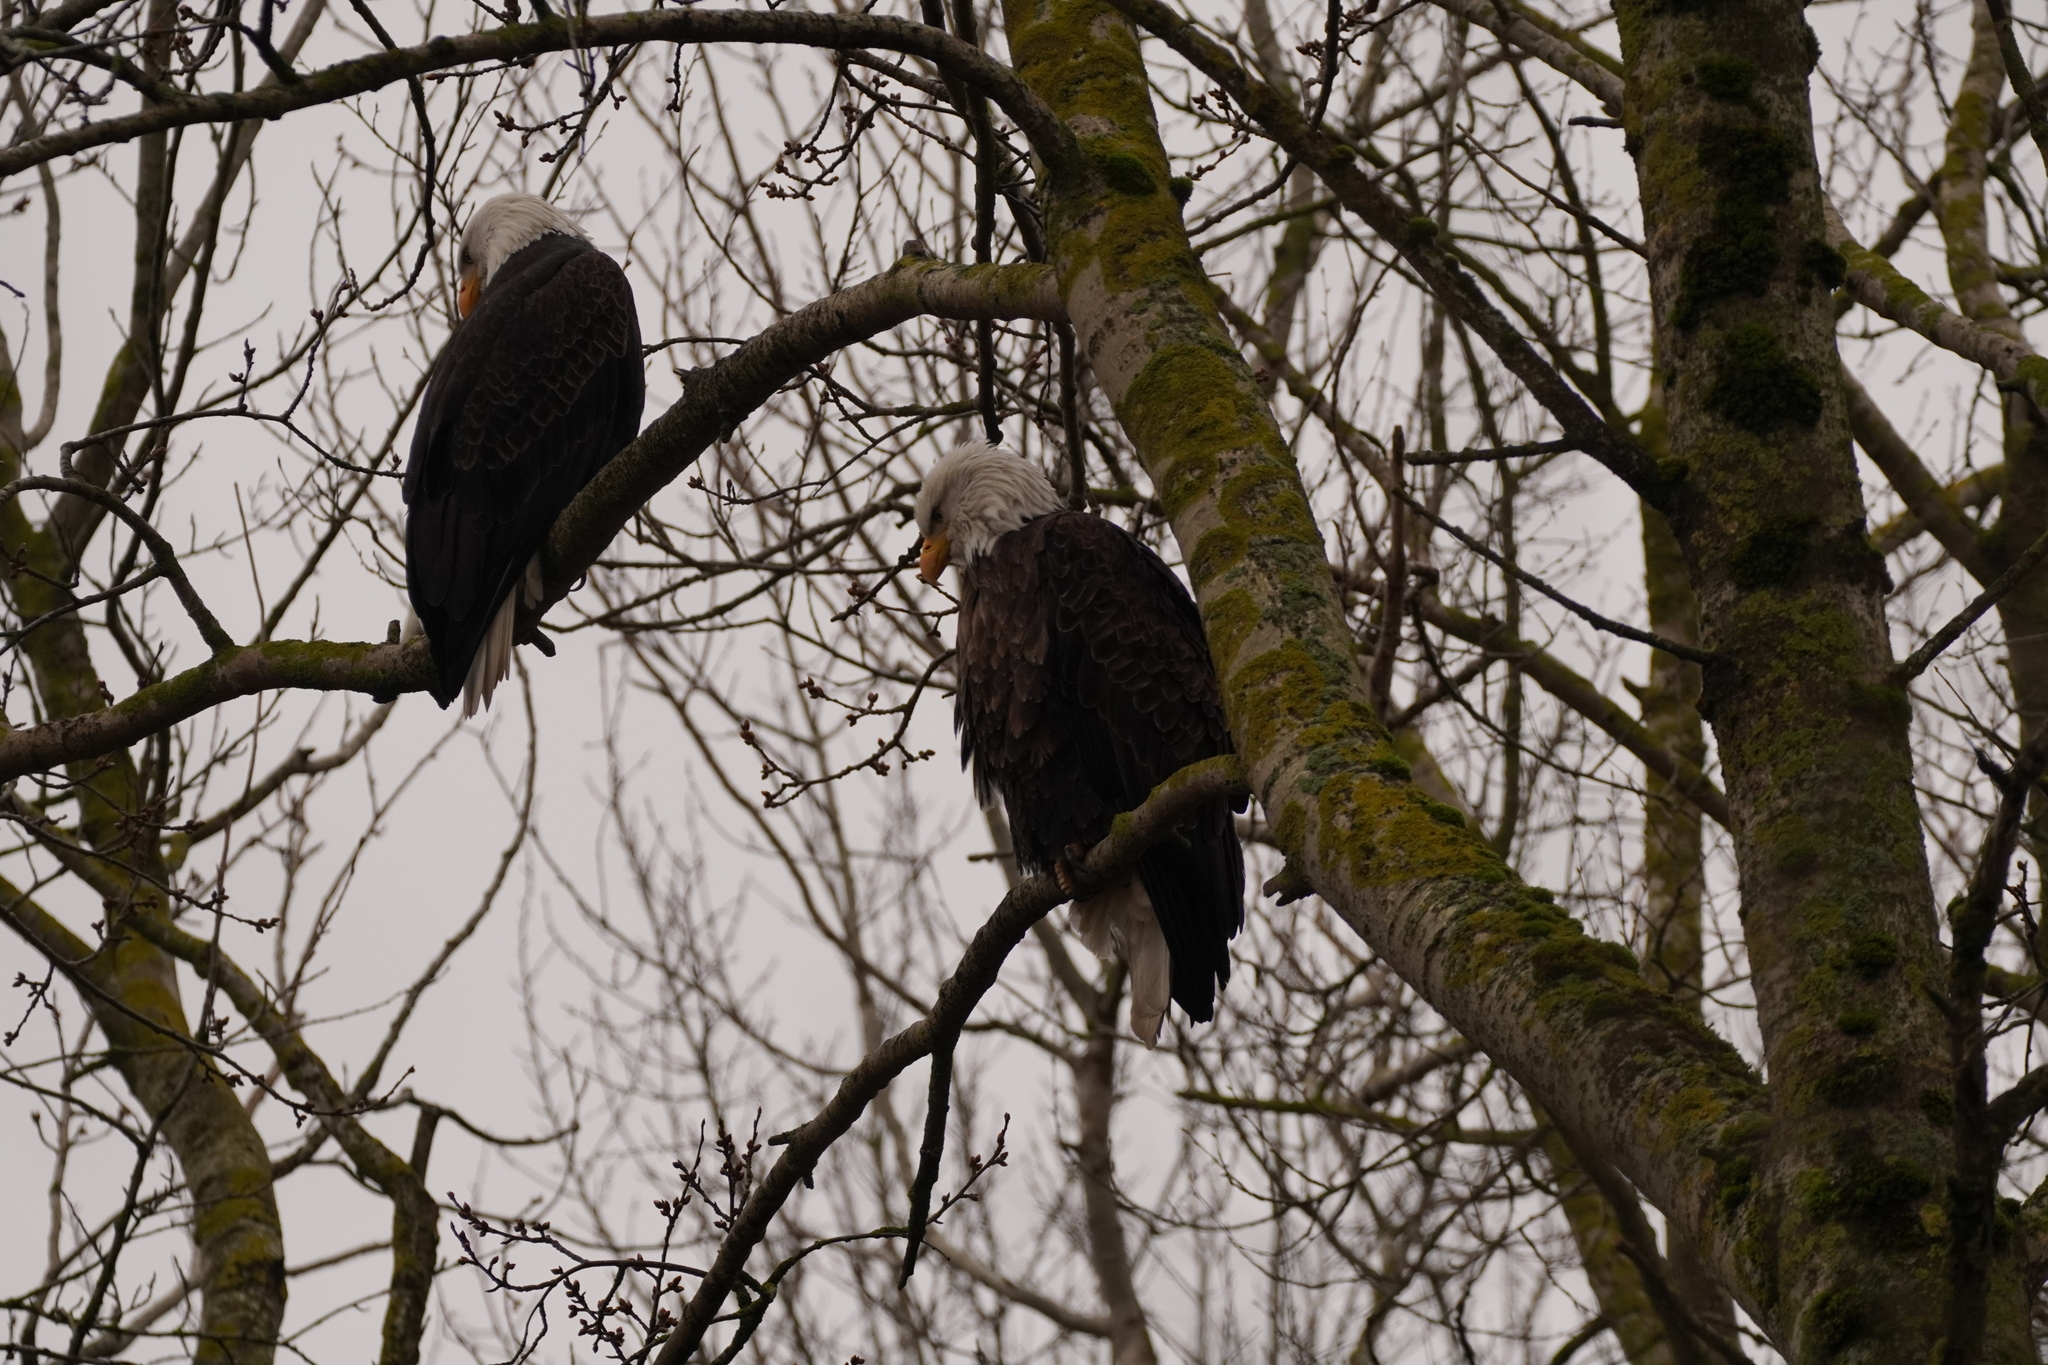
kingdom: Animalia
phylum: Chordata
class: Aves
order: Accipitriformes
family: Accipitridae
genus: Haliaeetus
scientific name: Haliaeetus leucocephalus
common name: Bald eagle
